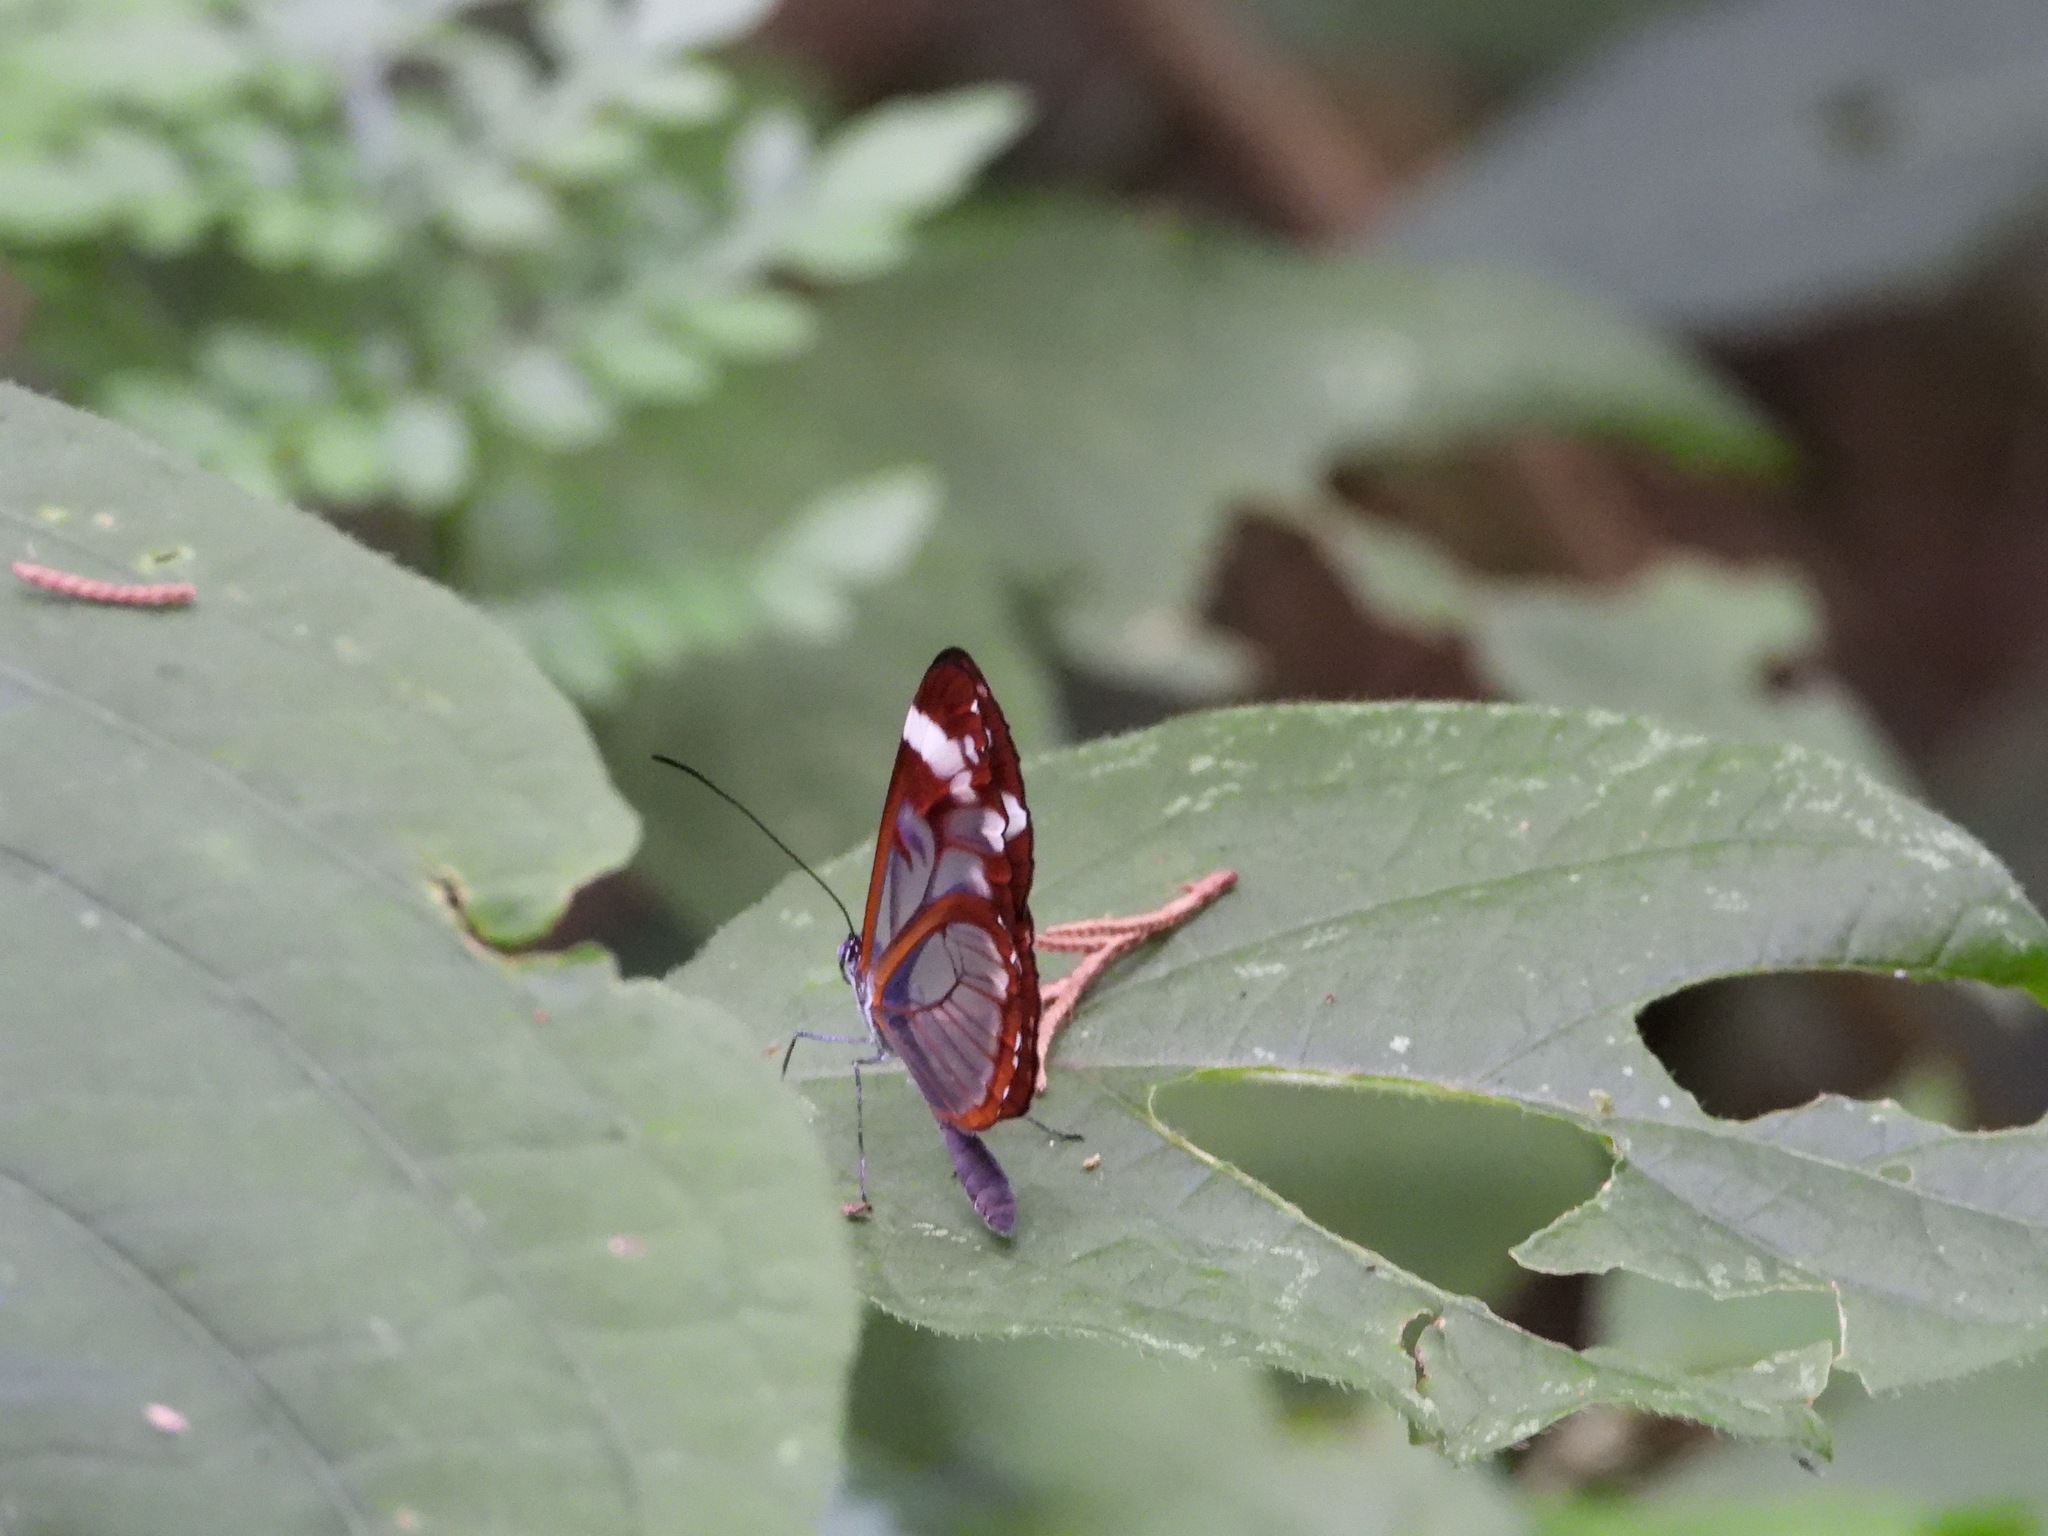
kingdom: Animalia
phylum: Arthropoda
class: Insecta
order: Lepidoptera
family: Nymphalidae
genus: Oleria
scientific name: Oleria zea
